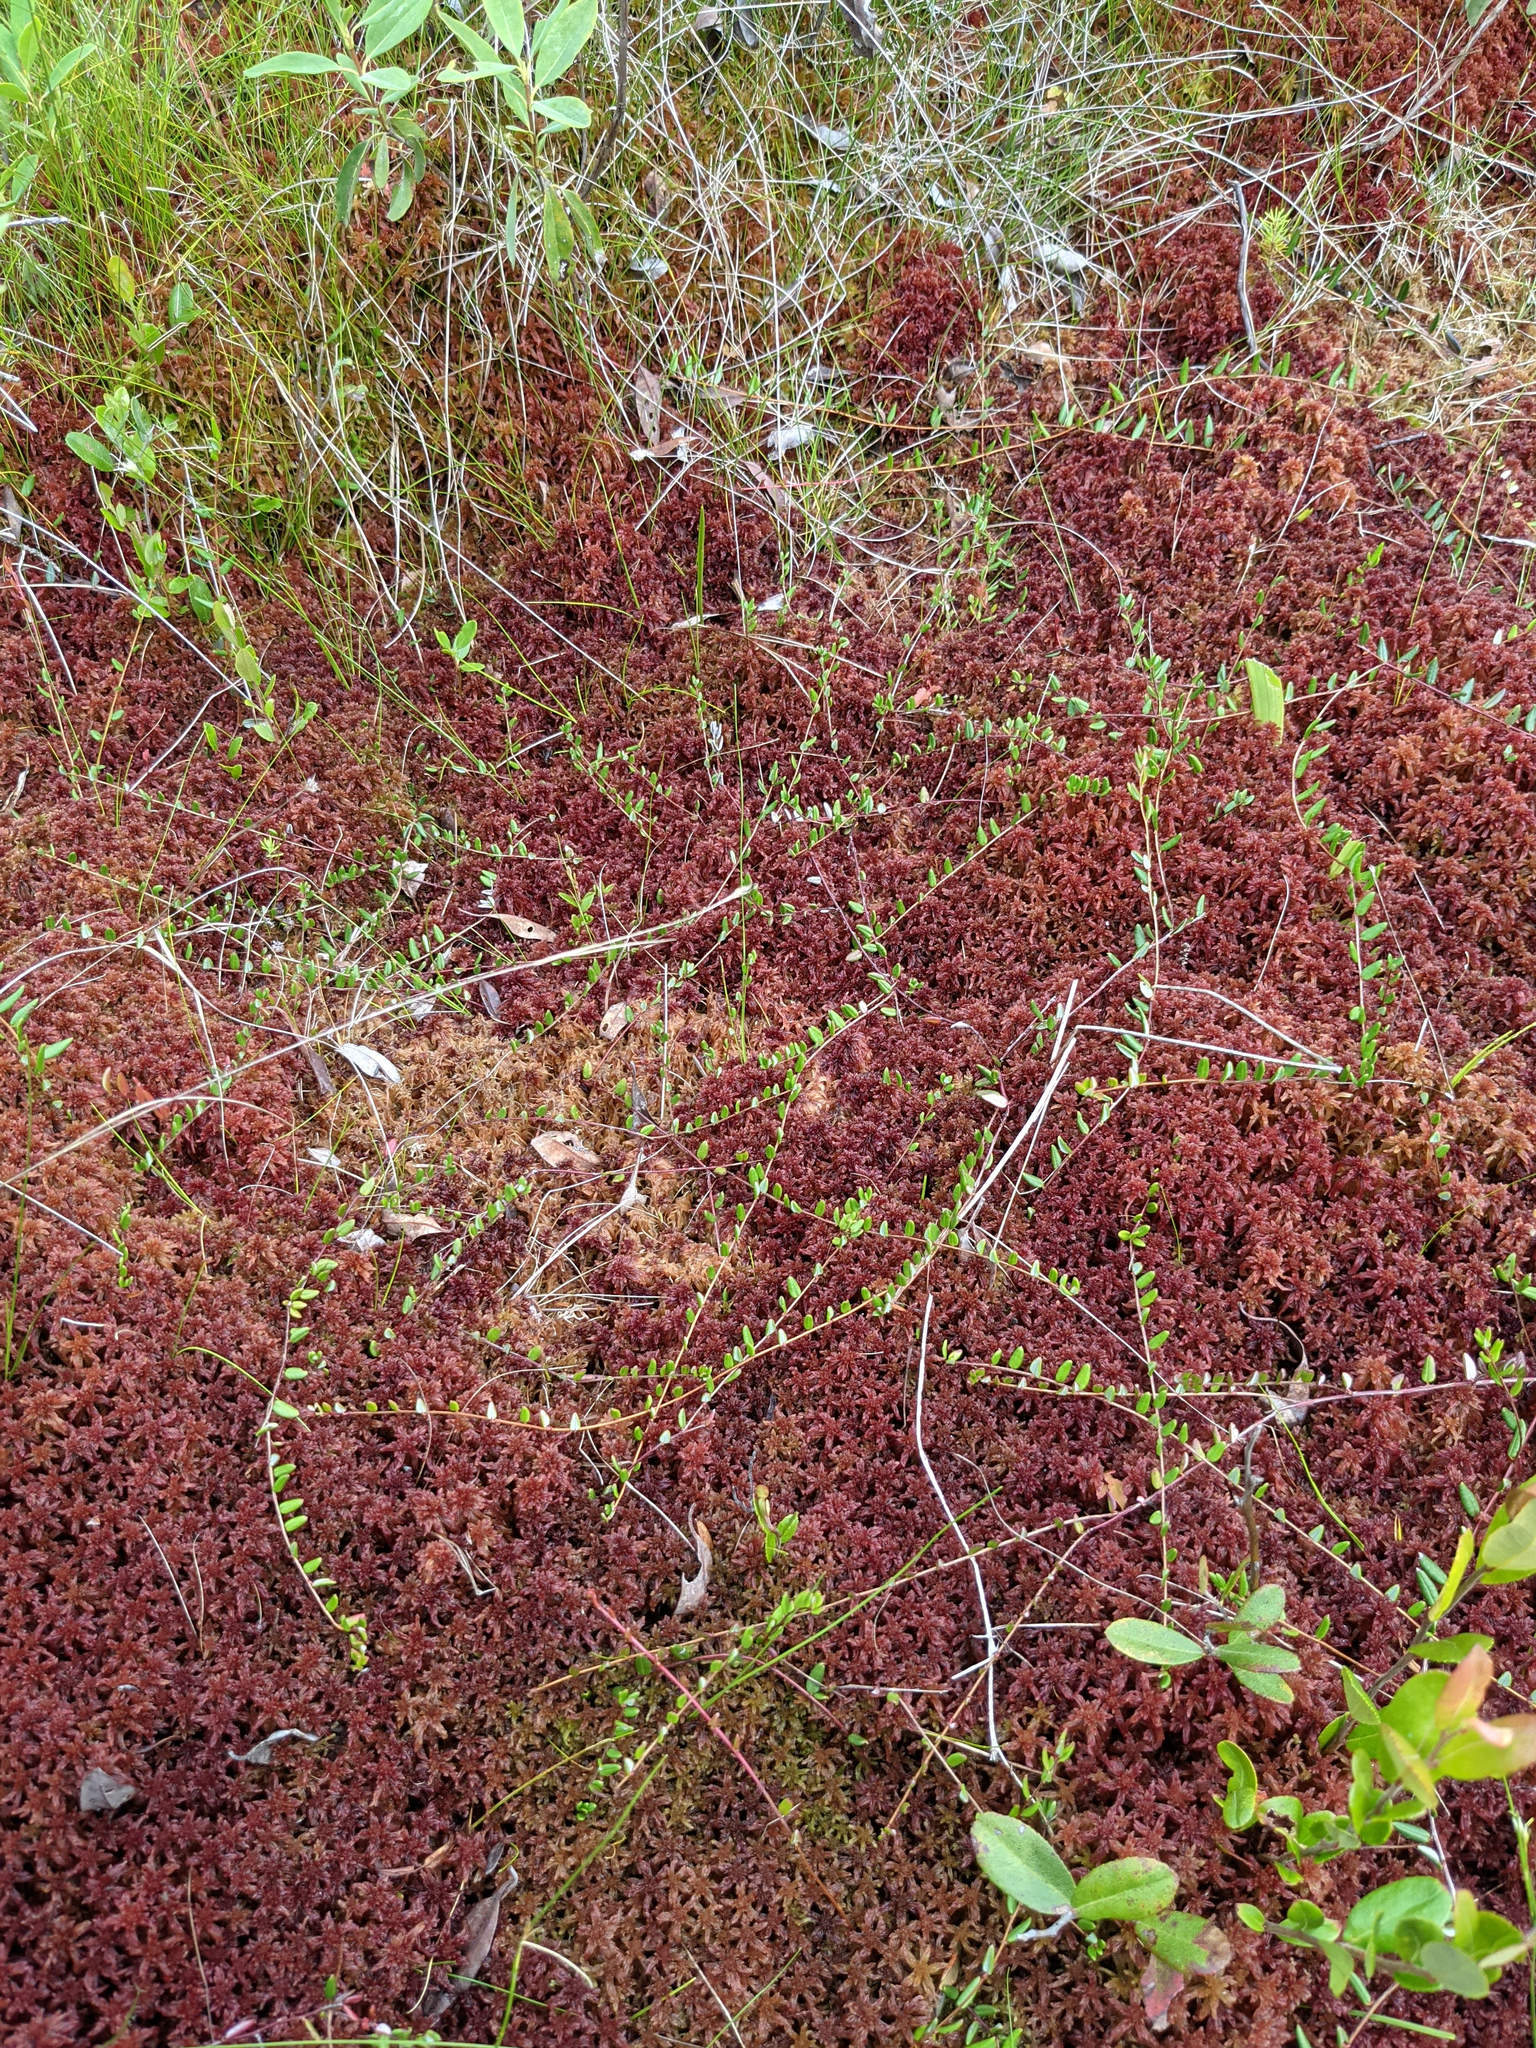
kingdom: Plantae
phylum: Tracheophyta
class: Magnoliopsida
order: Ericales
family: Ericaceae
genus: Vaccinium
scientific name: Vaccinium oxycoccos
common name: Cranberry
